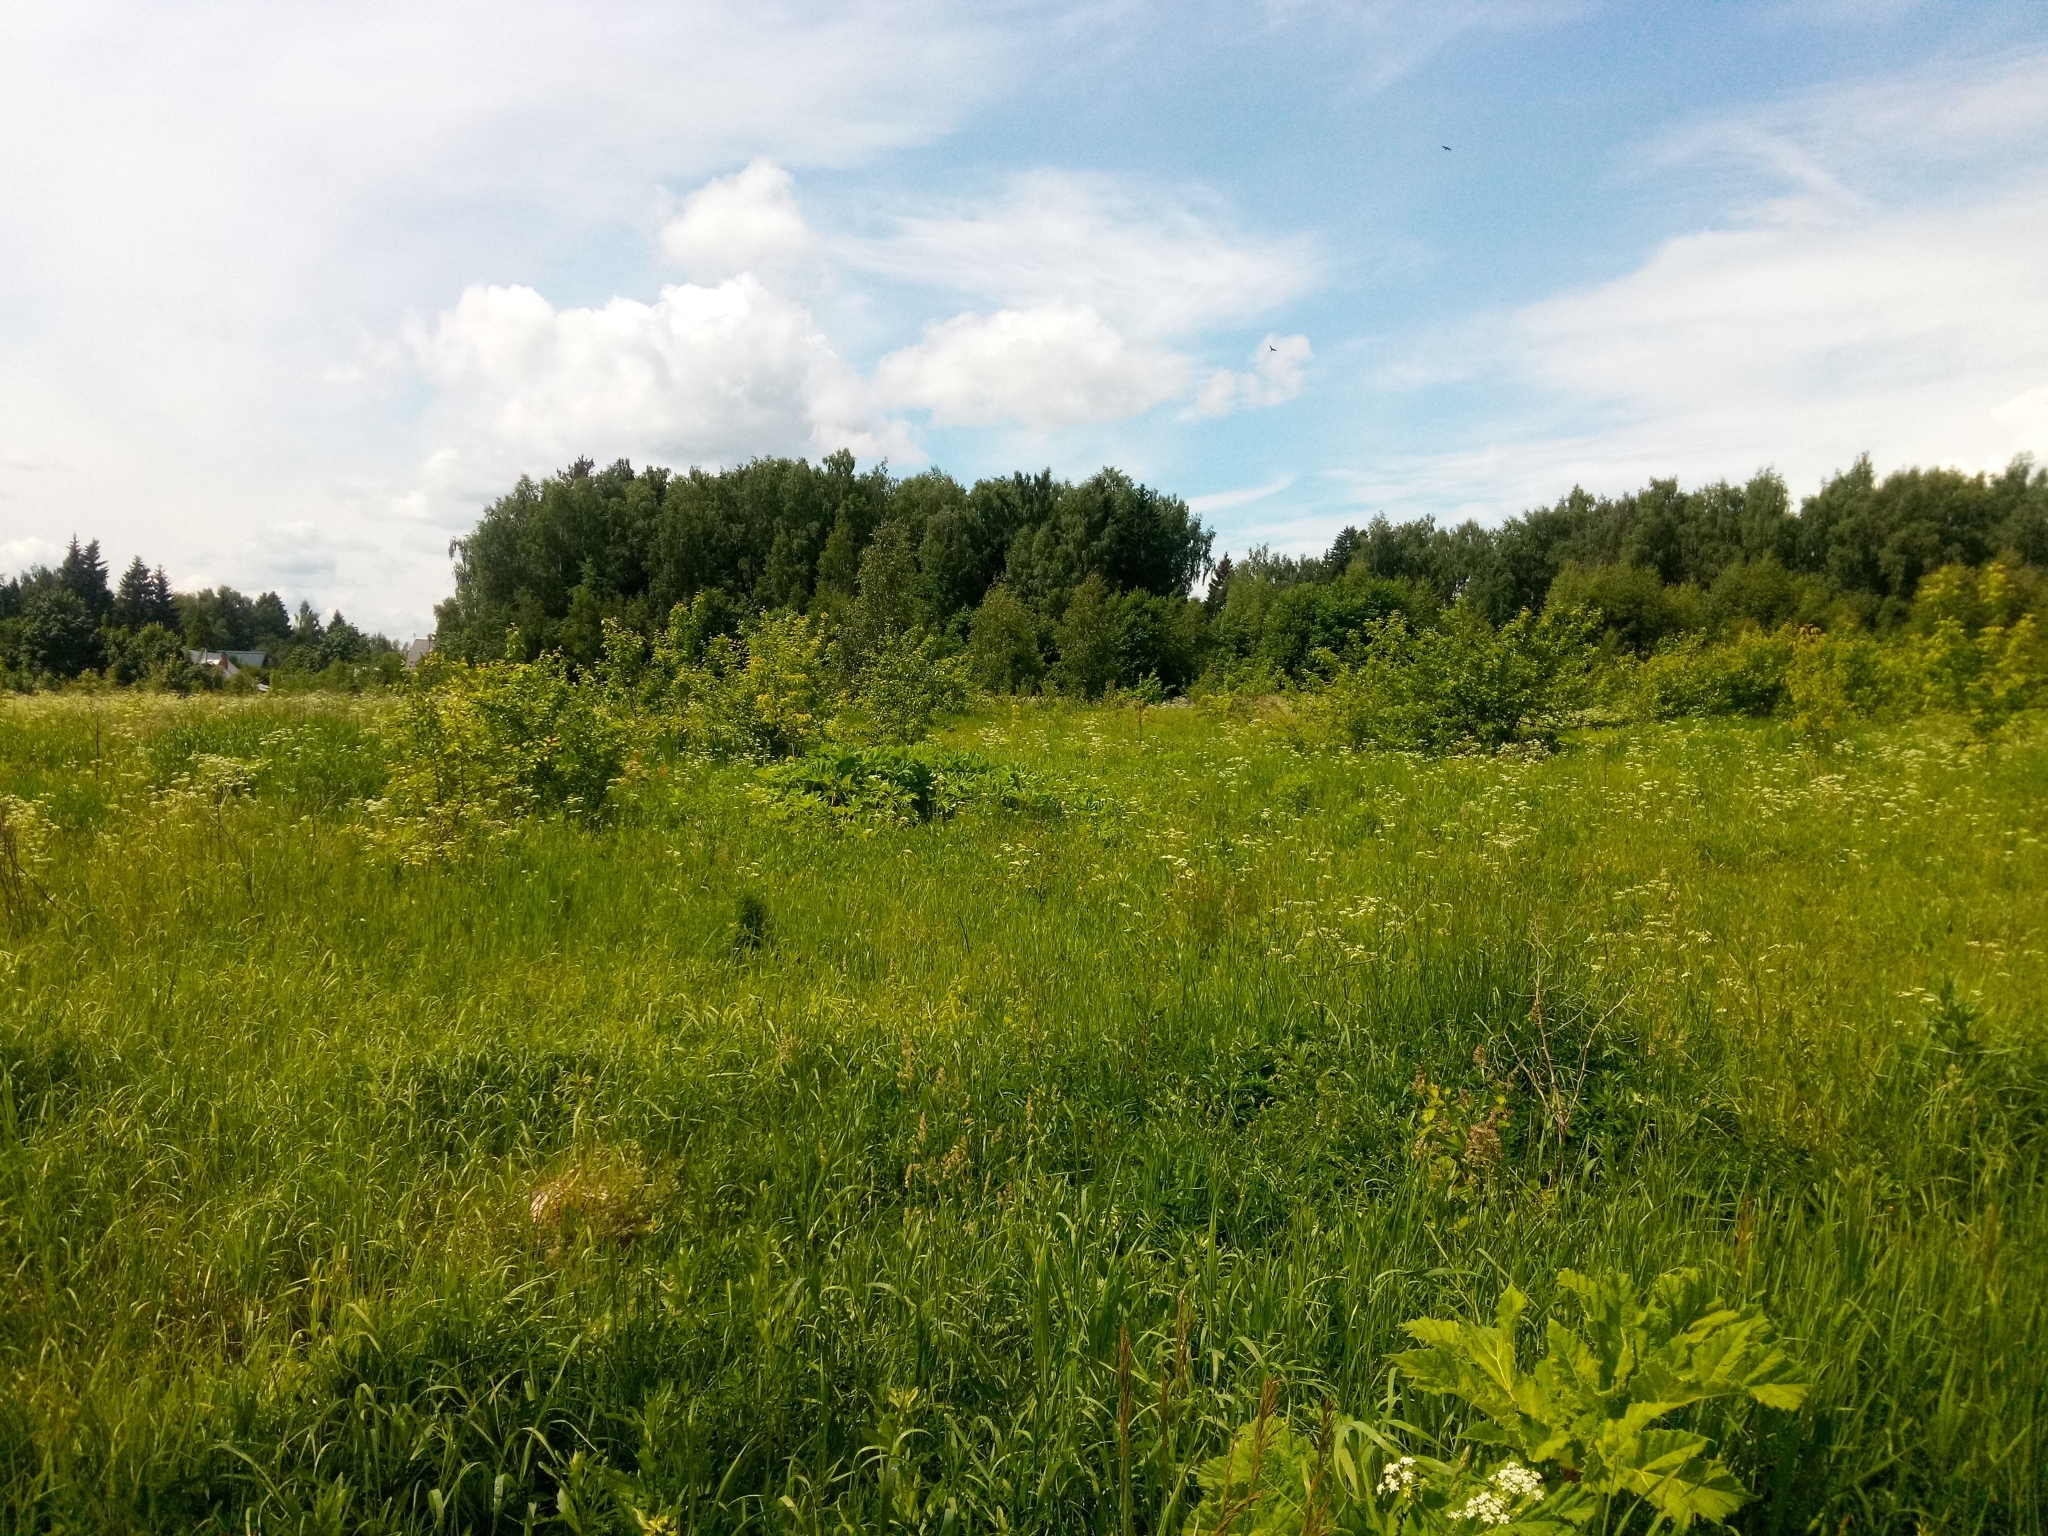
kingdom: Plantae
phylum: Tracheophyta
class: Magnoliopsida
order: Apiales
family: Apiaceae
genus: Heracleum
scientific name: Heracleum sosnowskyi
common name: Sosnowsky's hogweed
